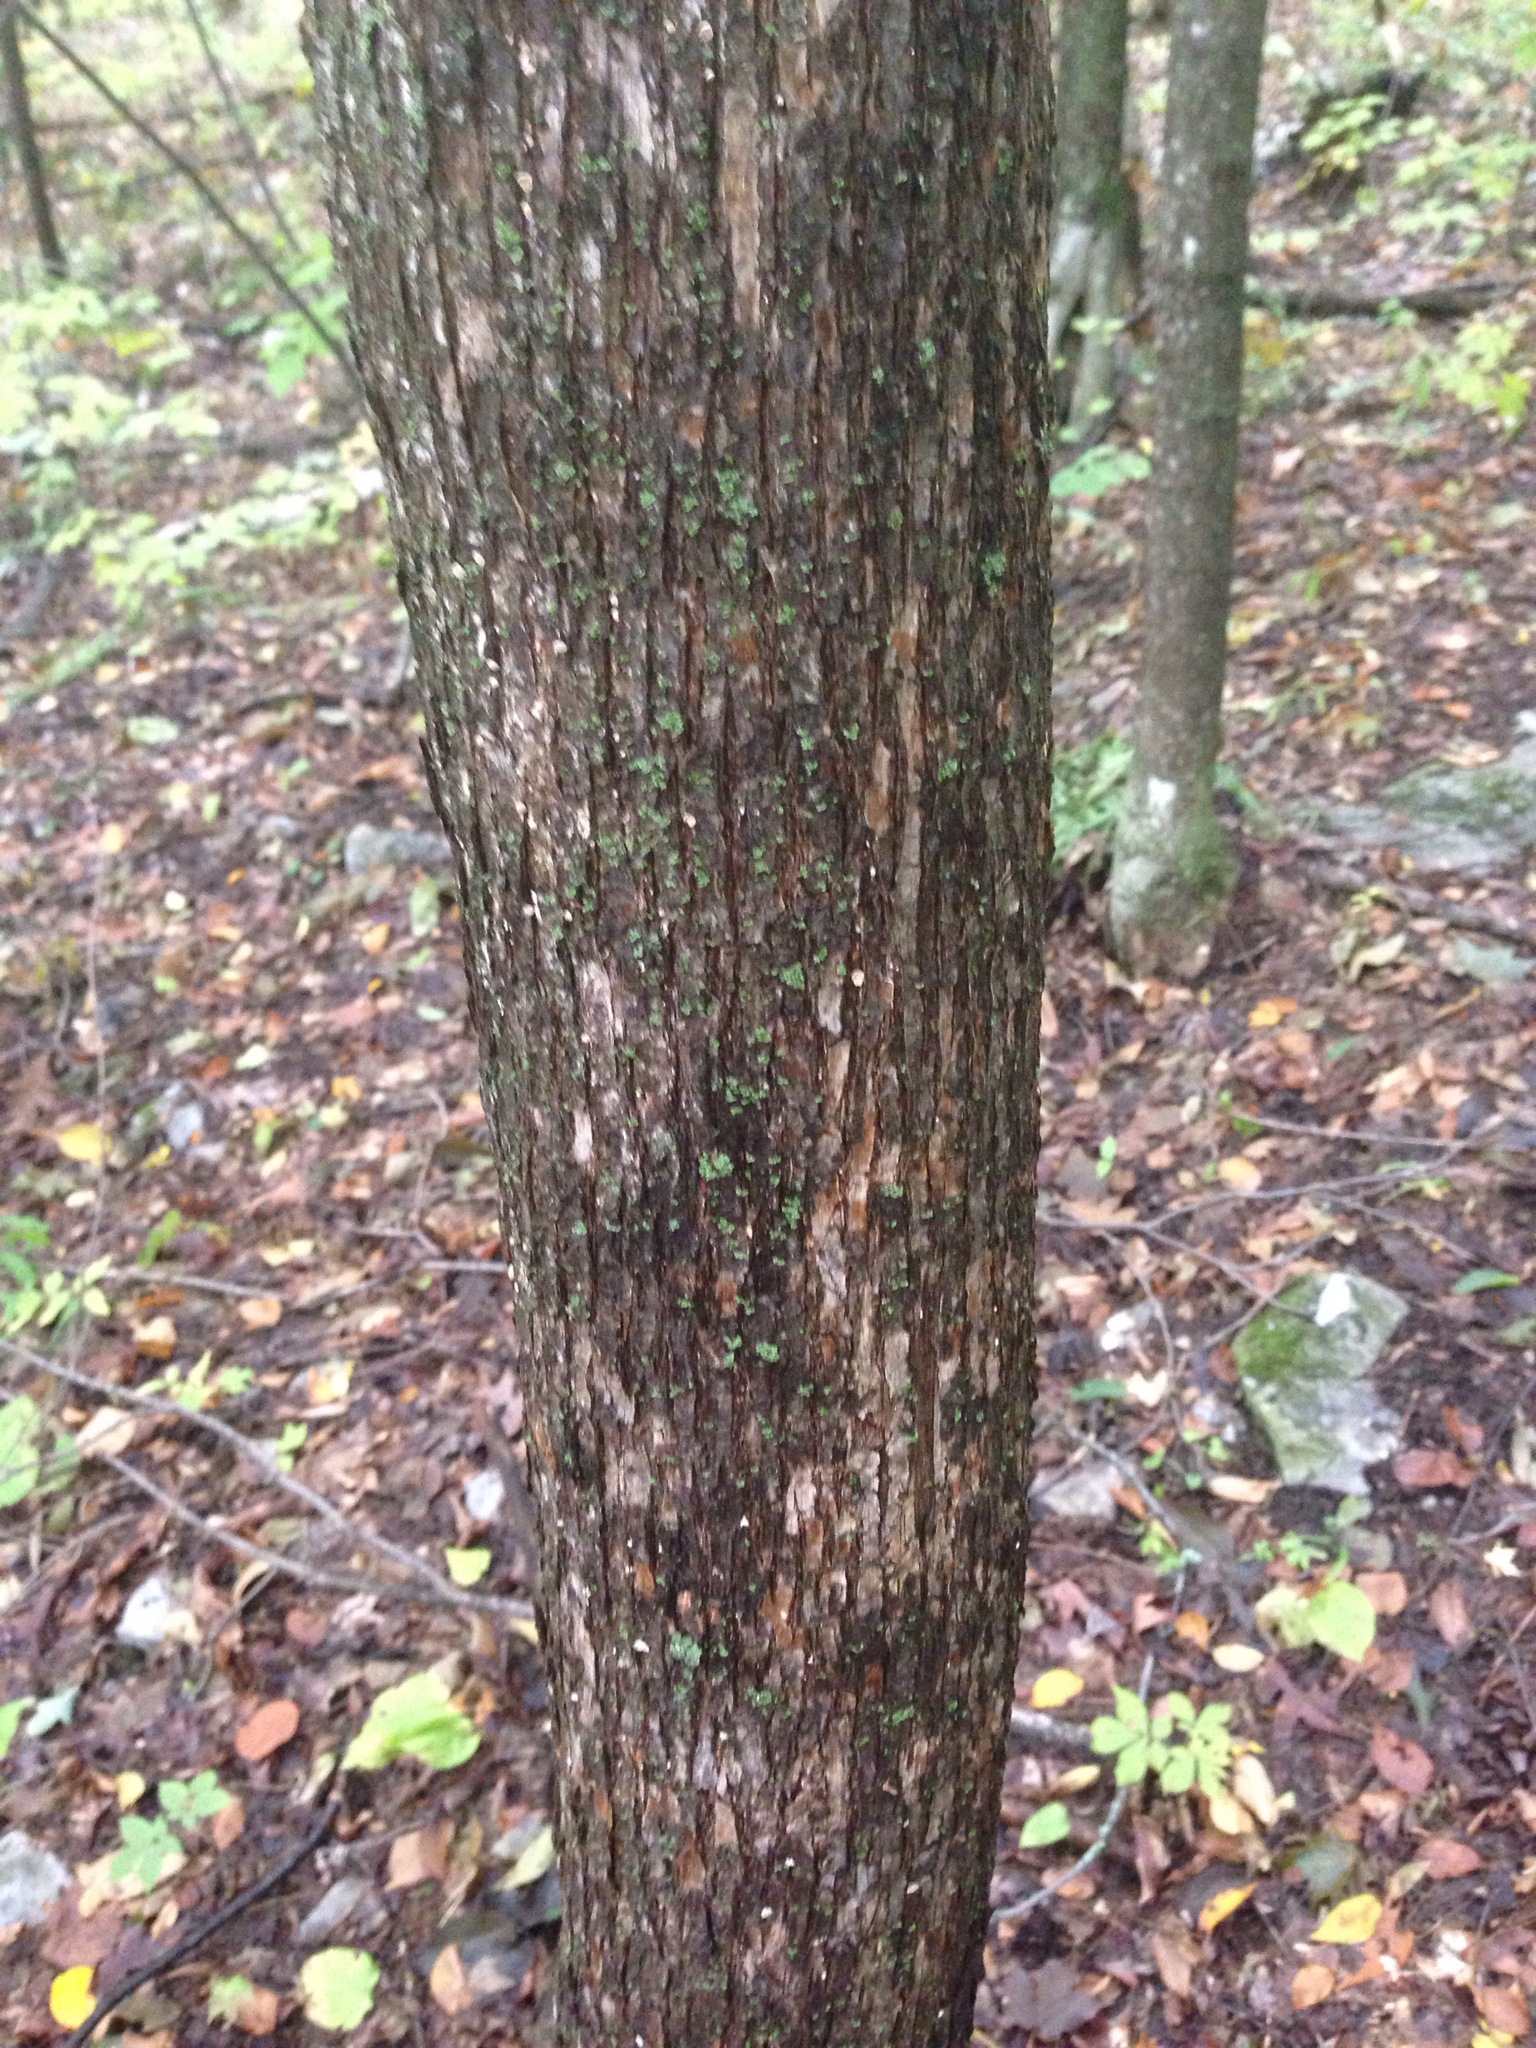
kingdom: Plantae
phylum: Tracheophyta
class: Magnoliopsida
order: Fagales
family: Betulaceae
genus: Ostrya
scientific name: Ostrya virginiana
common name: Ironwood
